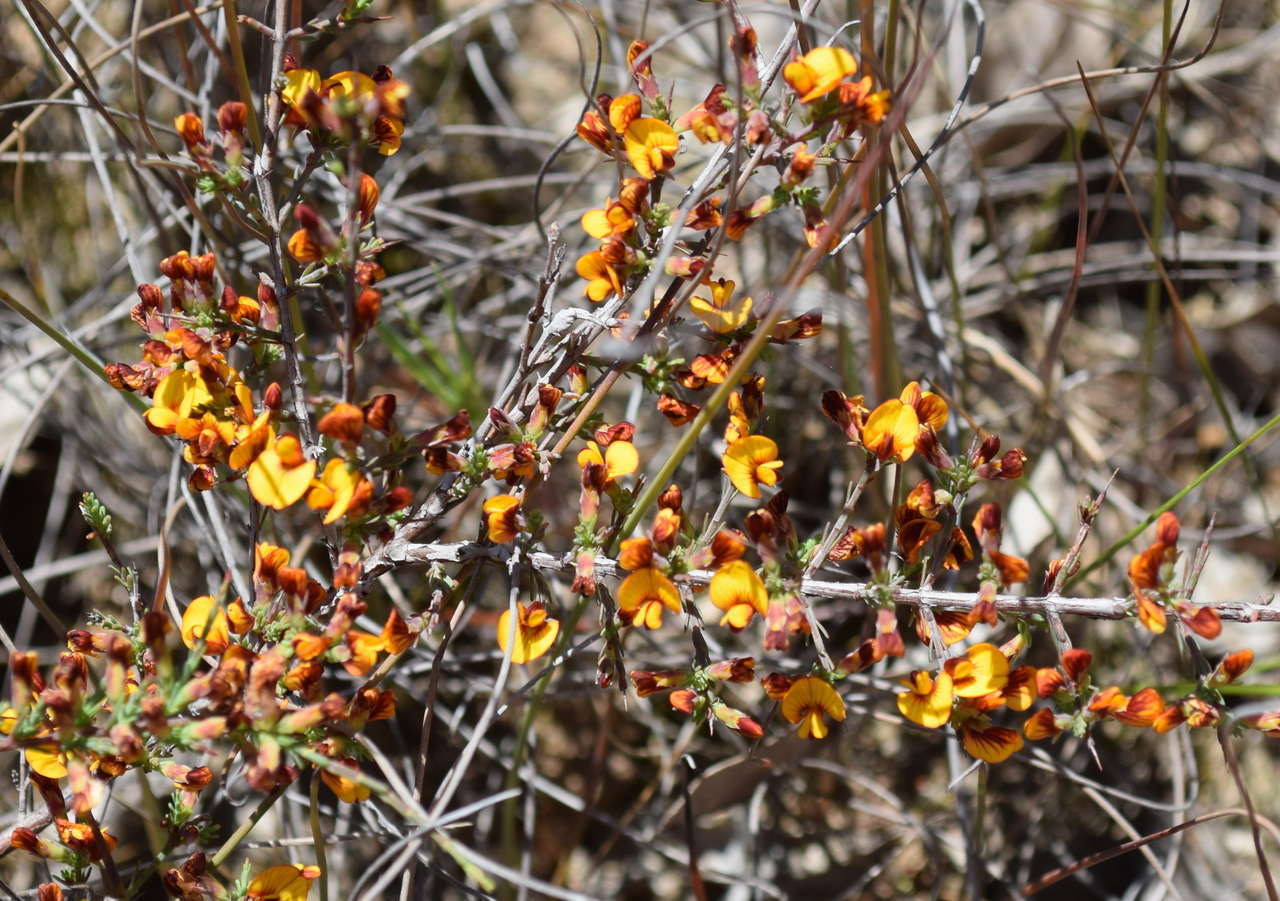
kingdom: Plantae
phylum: Tracheophyta
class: Magnoliopsida
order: Fabales
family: Fabaceae
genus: Eutaxia
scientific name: Eutaxia microphylla
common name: Mallee bush-pea
